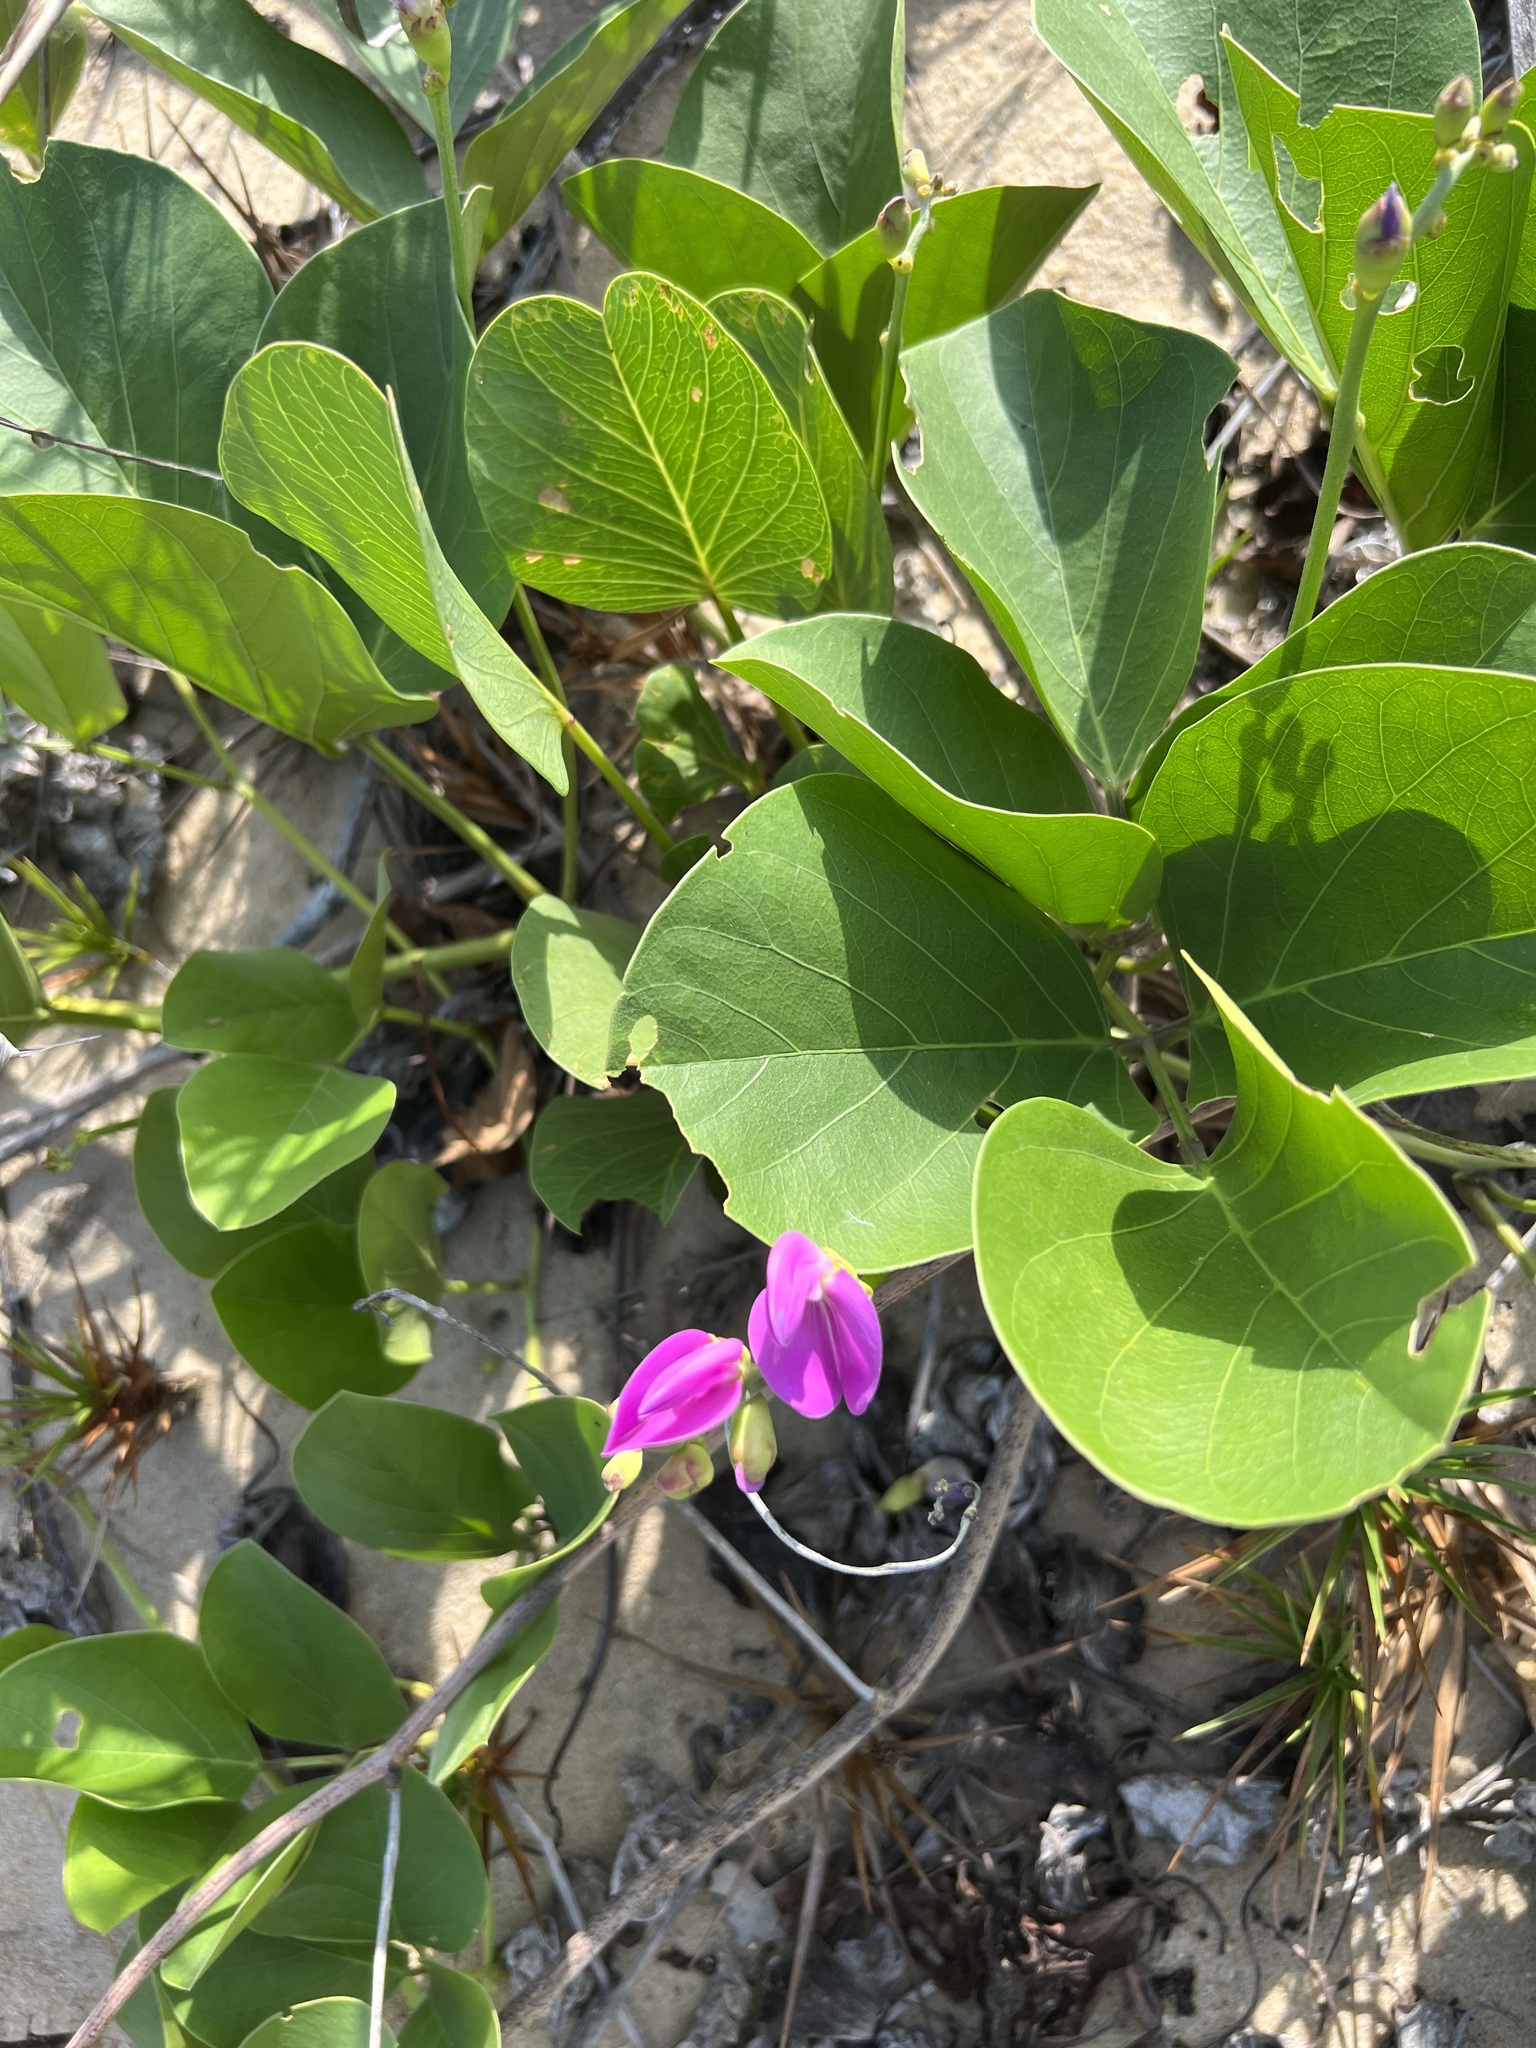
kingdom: Plantae
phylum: Tracheophyta
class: Magnoliopsida
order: Fabales
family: Fabaceae
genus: Canavalia
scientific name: Canavalia rosea
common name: Beach-bean
